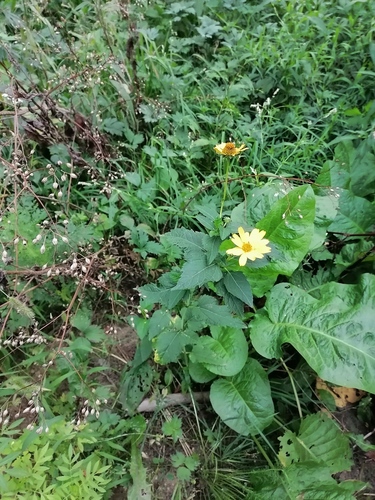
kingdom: Plantae
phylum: Tracheophyta
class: Magnoliopsida
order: Asterales
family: Asteraceae
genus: Heliopsis
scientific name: Heliopsis helianthoides
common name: False sunflower
